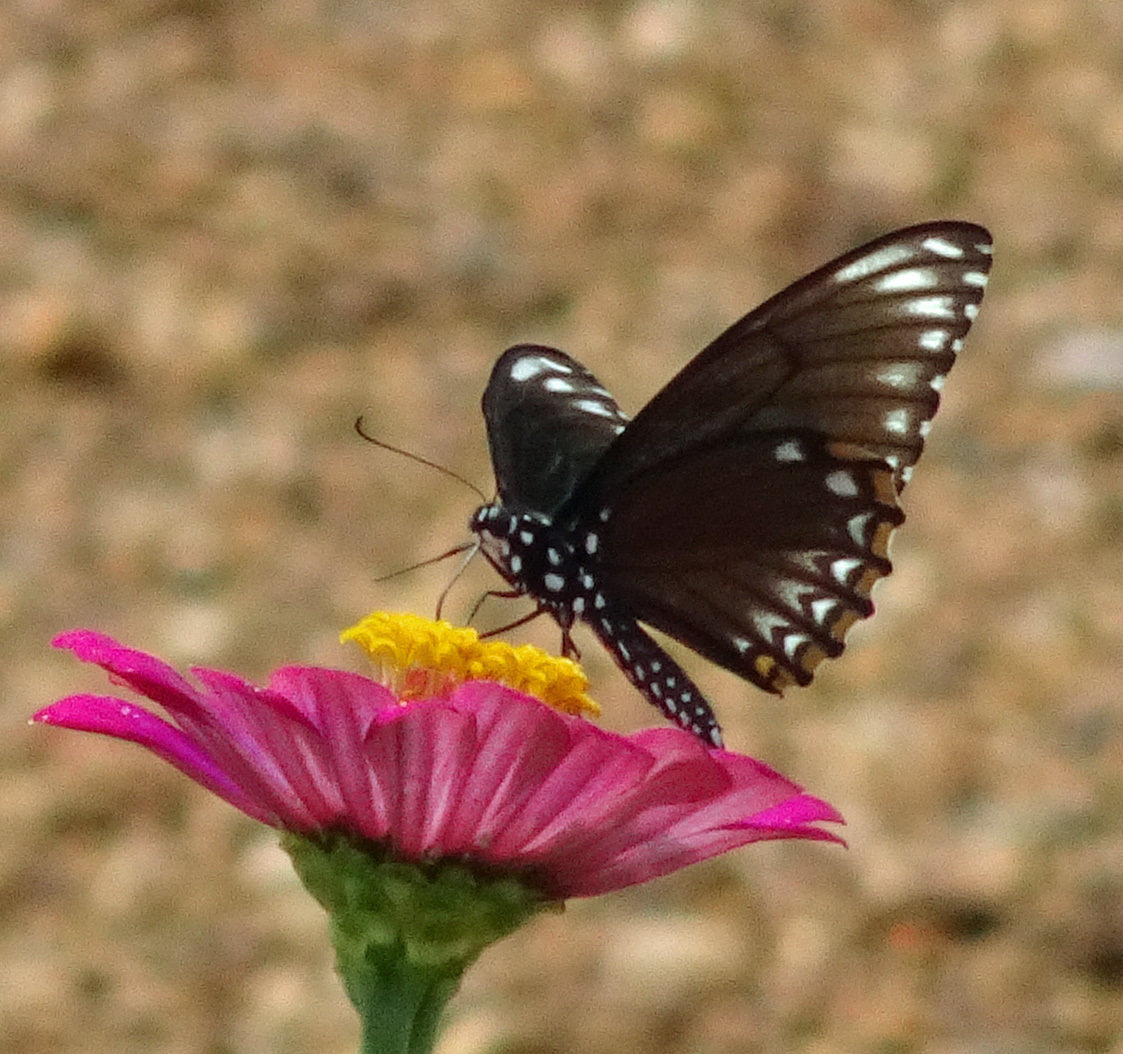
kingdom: Animalia
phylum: Arthropoda
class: Insecta
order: Lepidoptera
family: Papilionidae
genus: Chilasa
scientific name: Chilasa clytia
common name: Common mime
